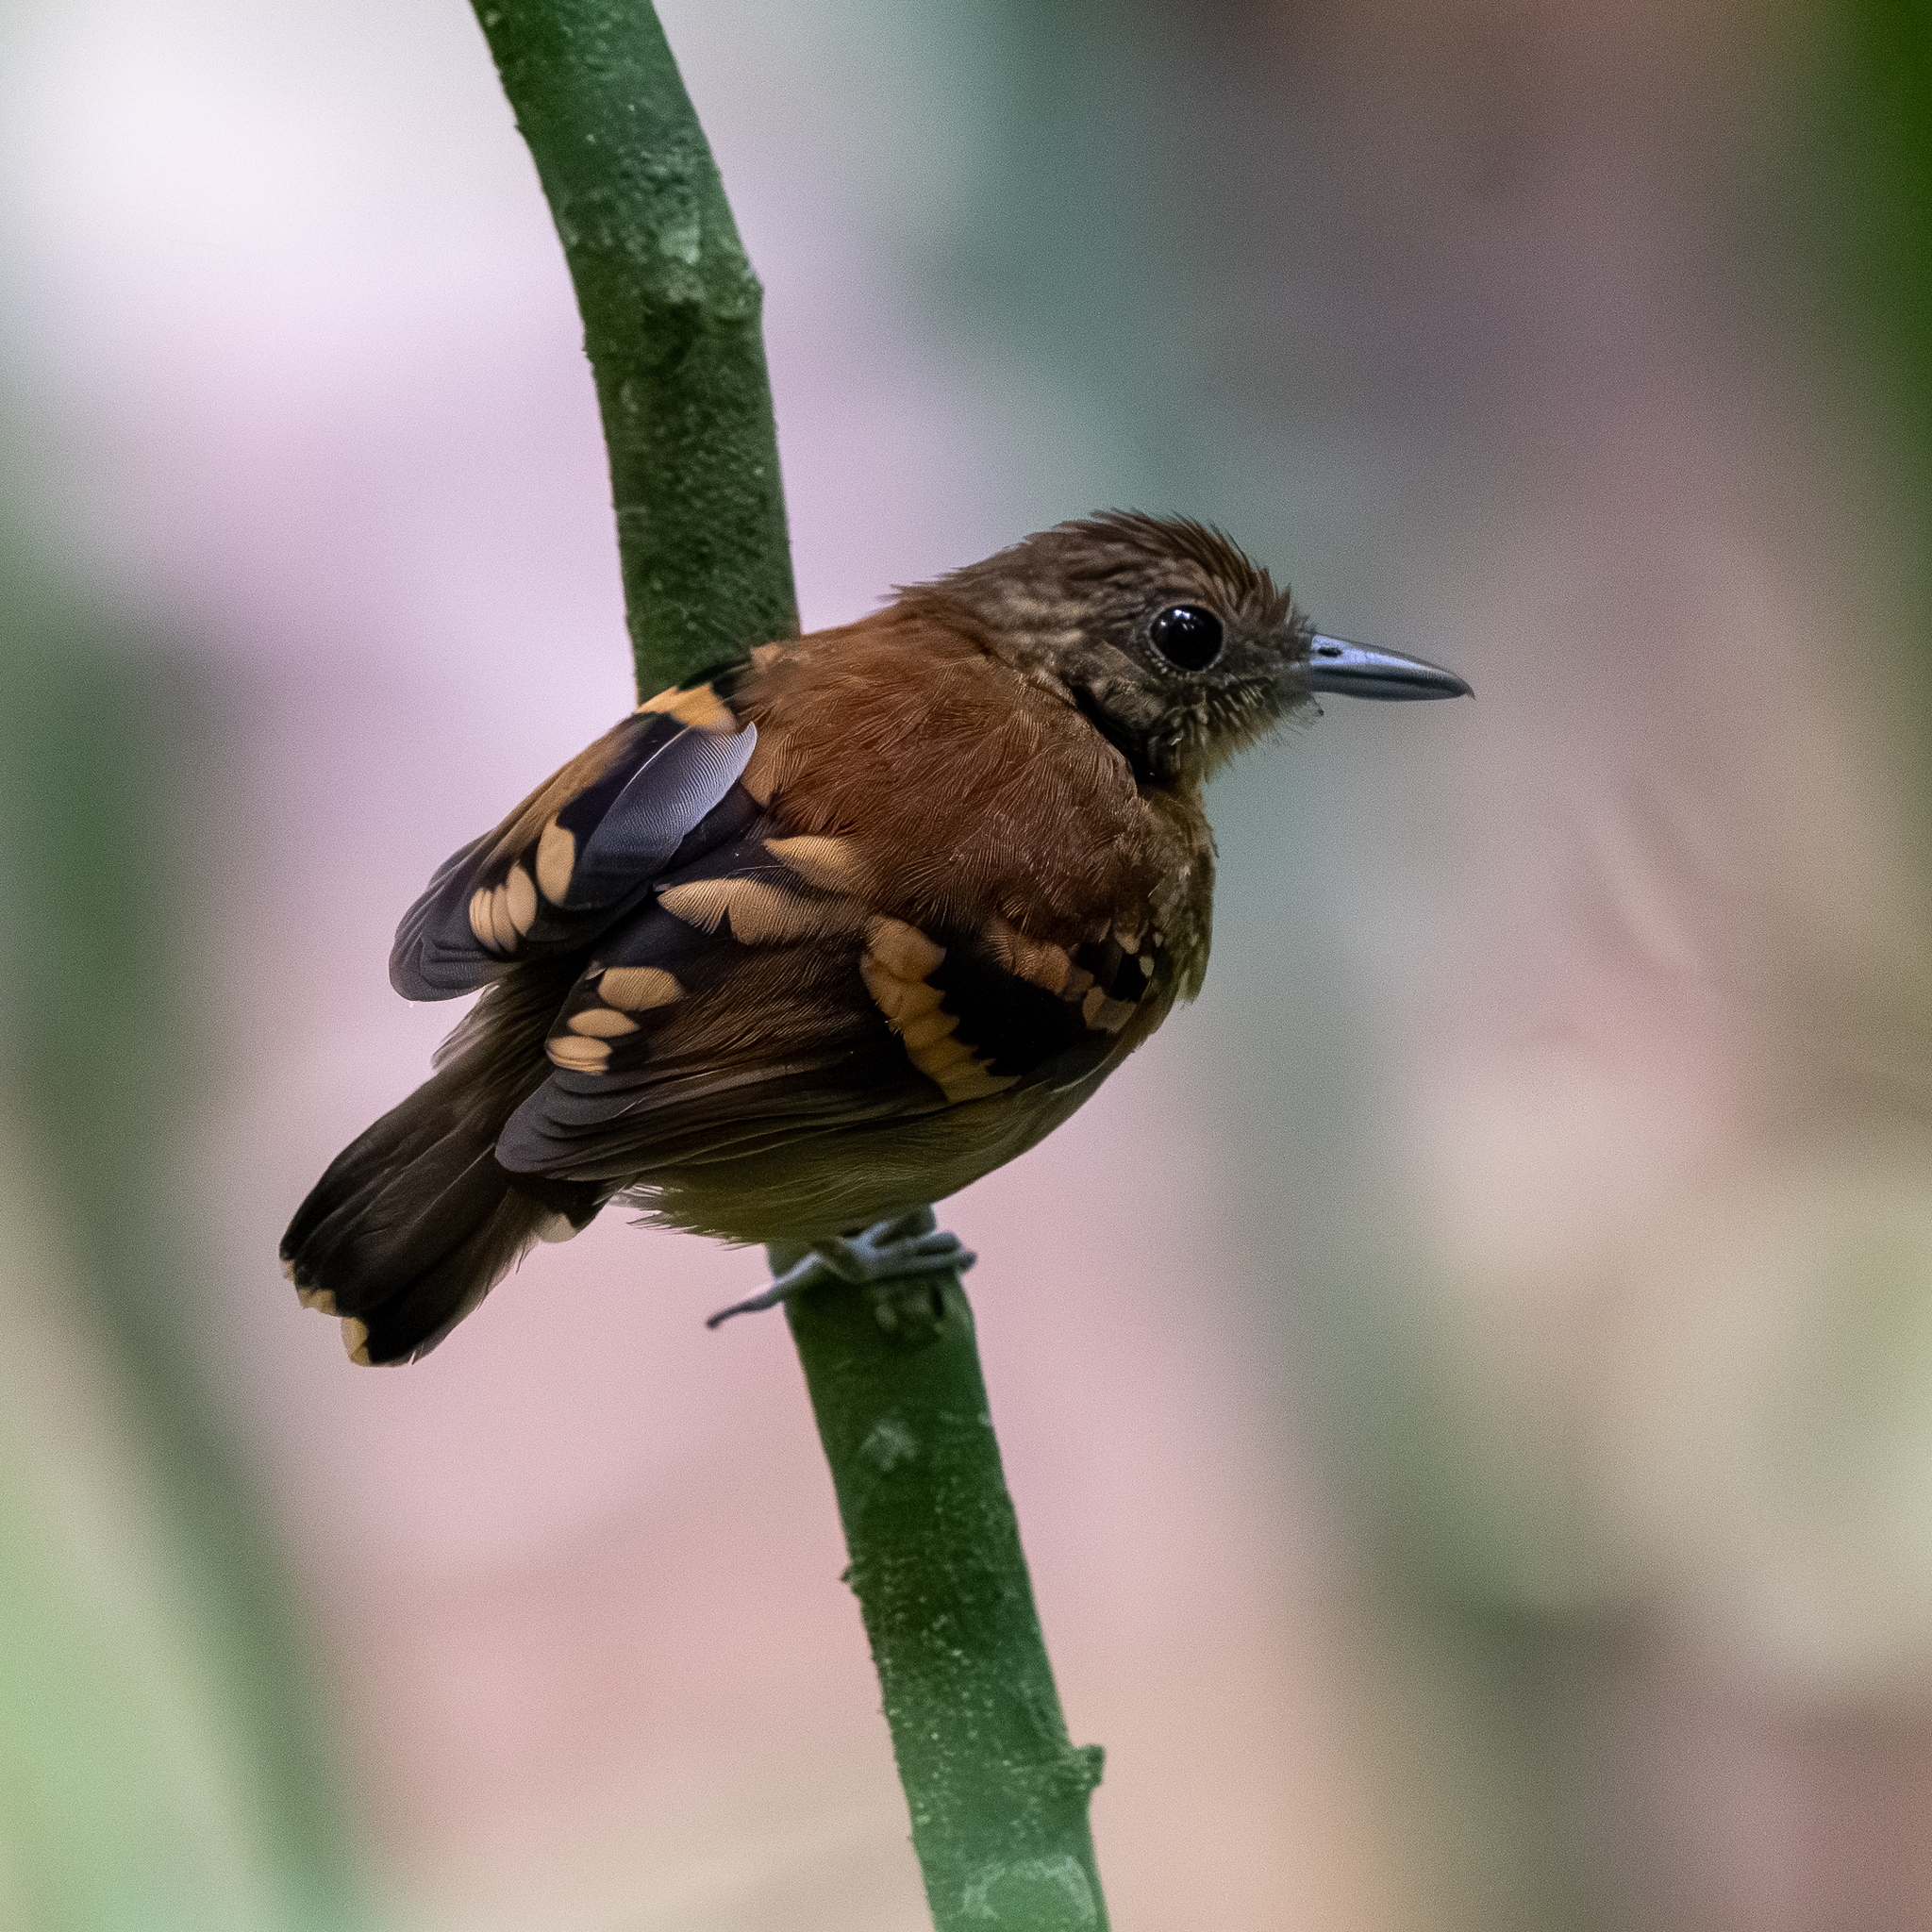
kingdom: Animalia
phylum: Chordata
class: Aves
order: Passeriformes
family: Thamnophilidae
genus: Hylophylax
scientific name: Hylophylax naevioides
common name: Spotted antbird
